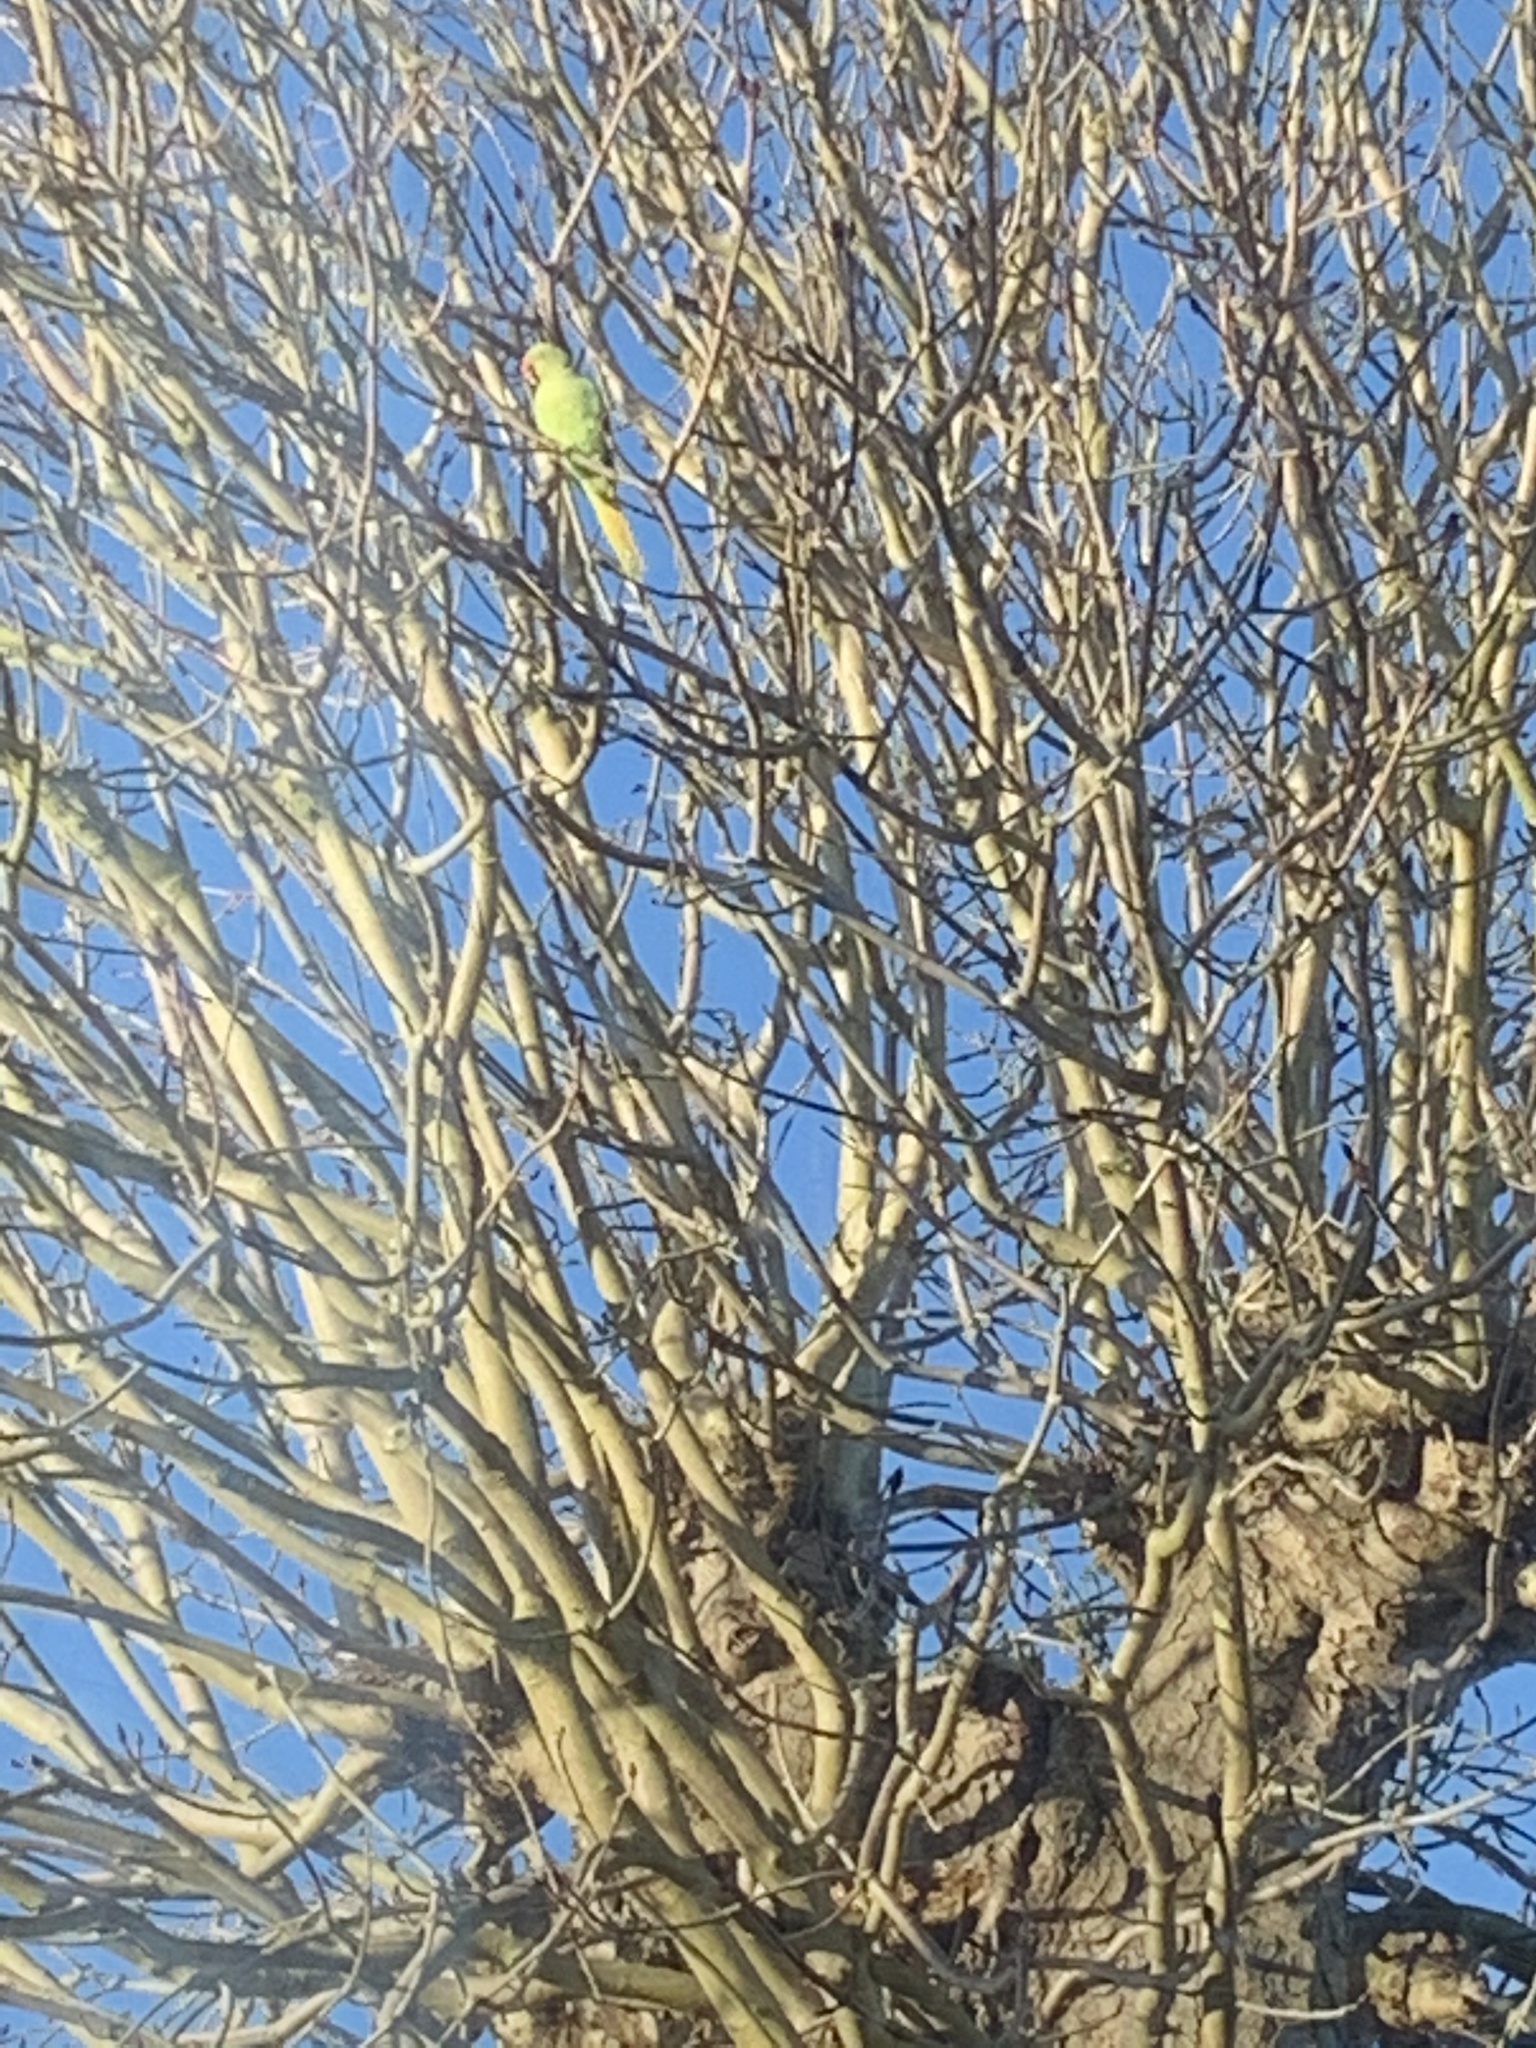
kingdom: Animalia
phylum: Chordata
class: Aves
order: Psittaciformes
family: Psittacidae
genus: Psittacula
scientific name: Psittacula krameri
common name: Rose-ringed parakeet
